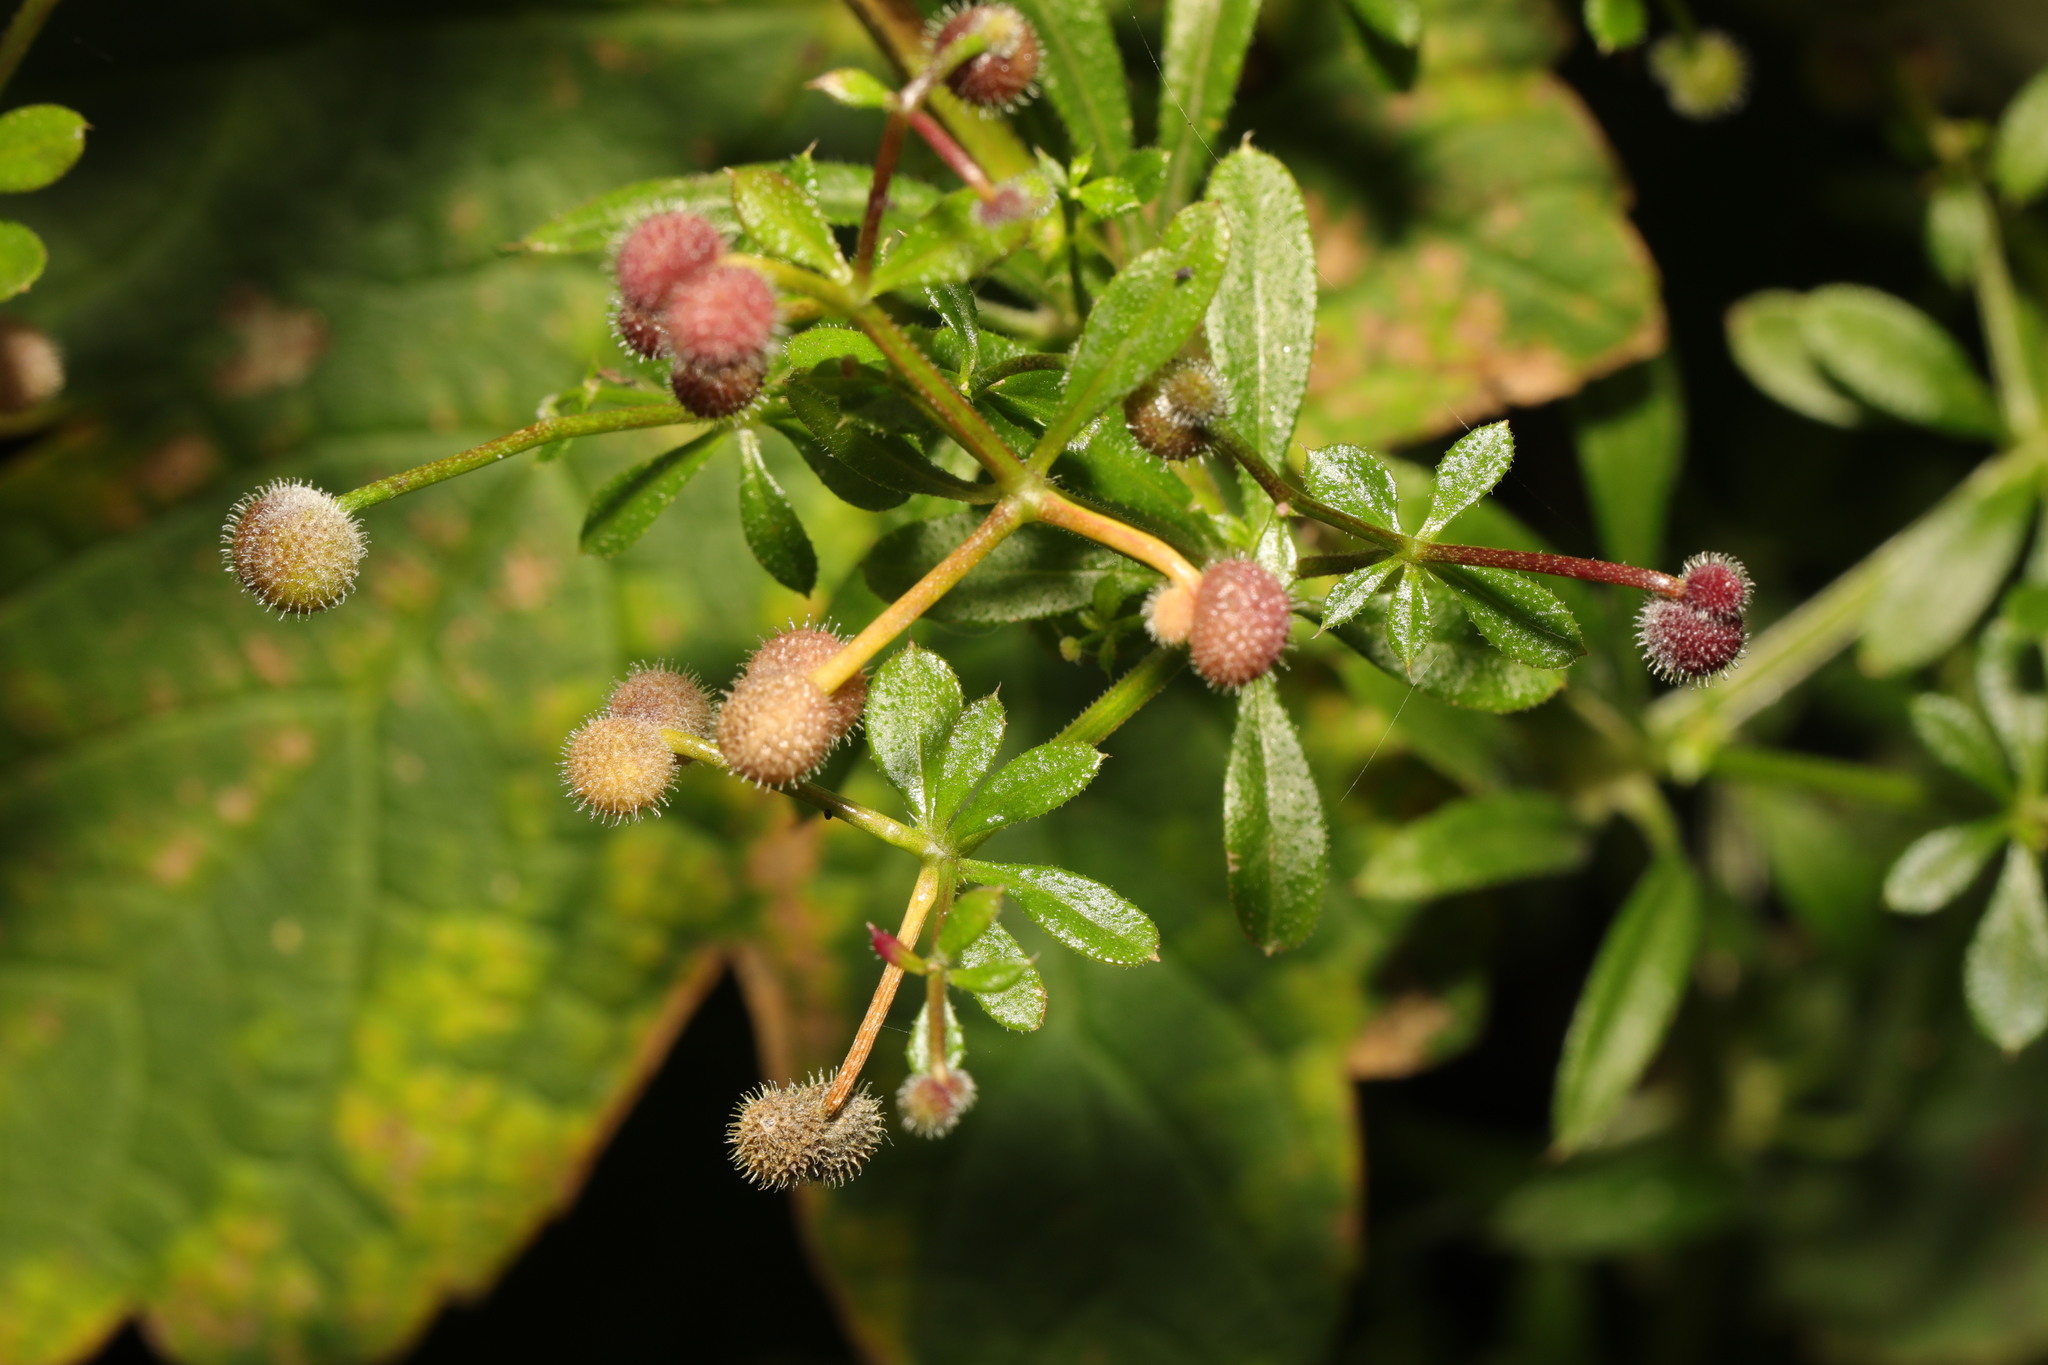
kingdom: Plantae
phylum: Tracheophyta
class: Magnoliopsida
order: Gentianales
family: Rubiaceae
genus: Galium
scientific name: Galium aparine
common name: Cleavers
